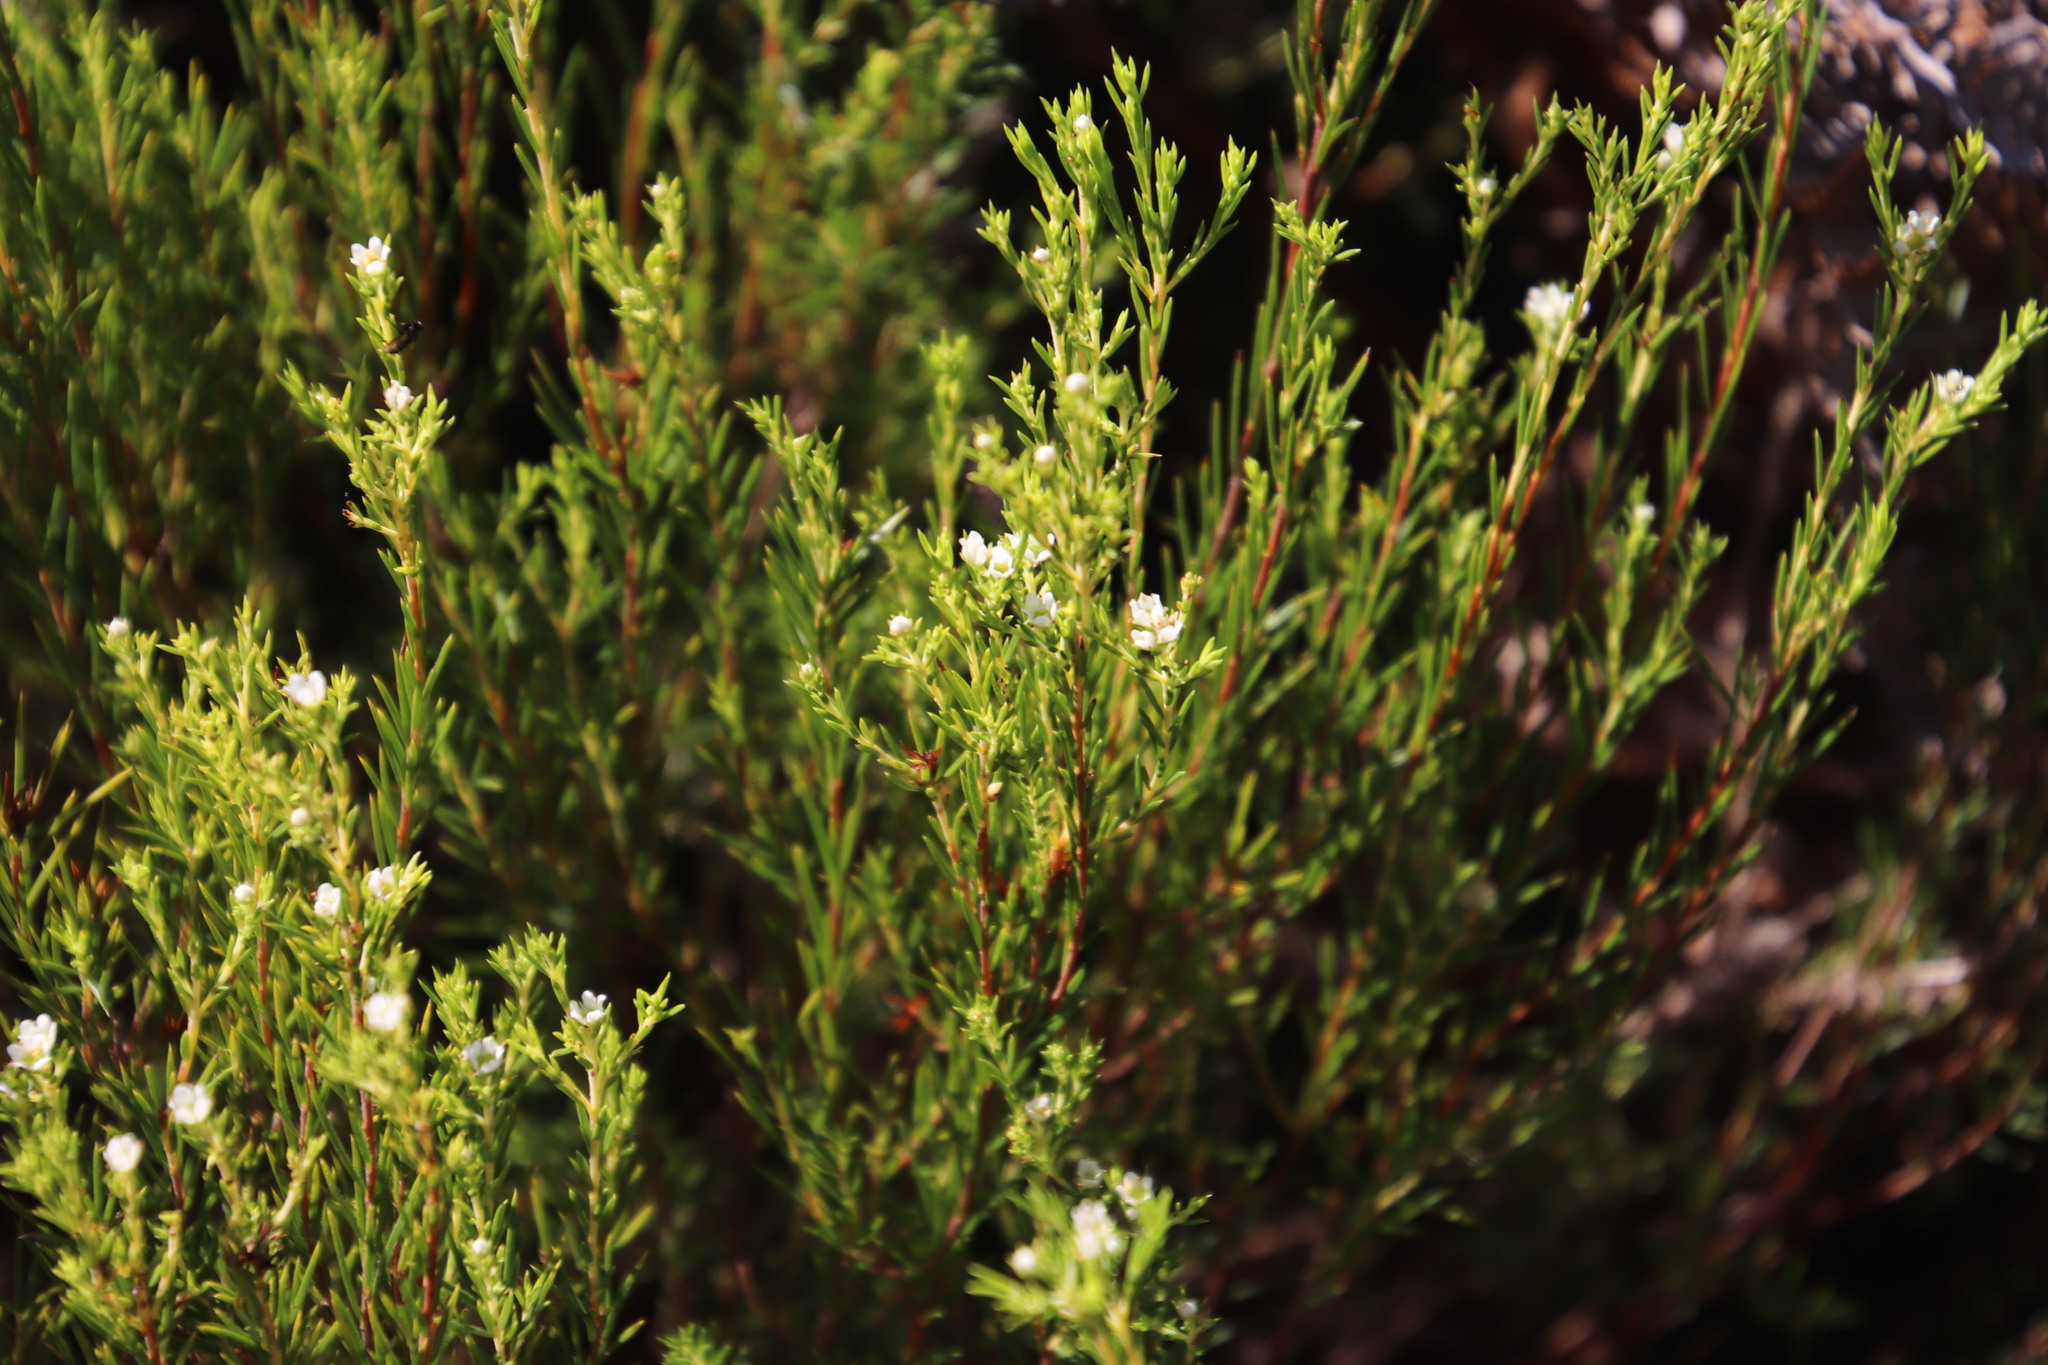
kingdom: Plantae
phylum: Tracheophyta
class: Magnoliopsida
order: Sapindales
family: Rutaceae
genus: Diosma
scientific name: Diosma hirsuta
